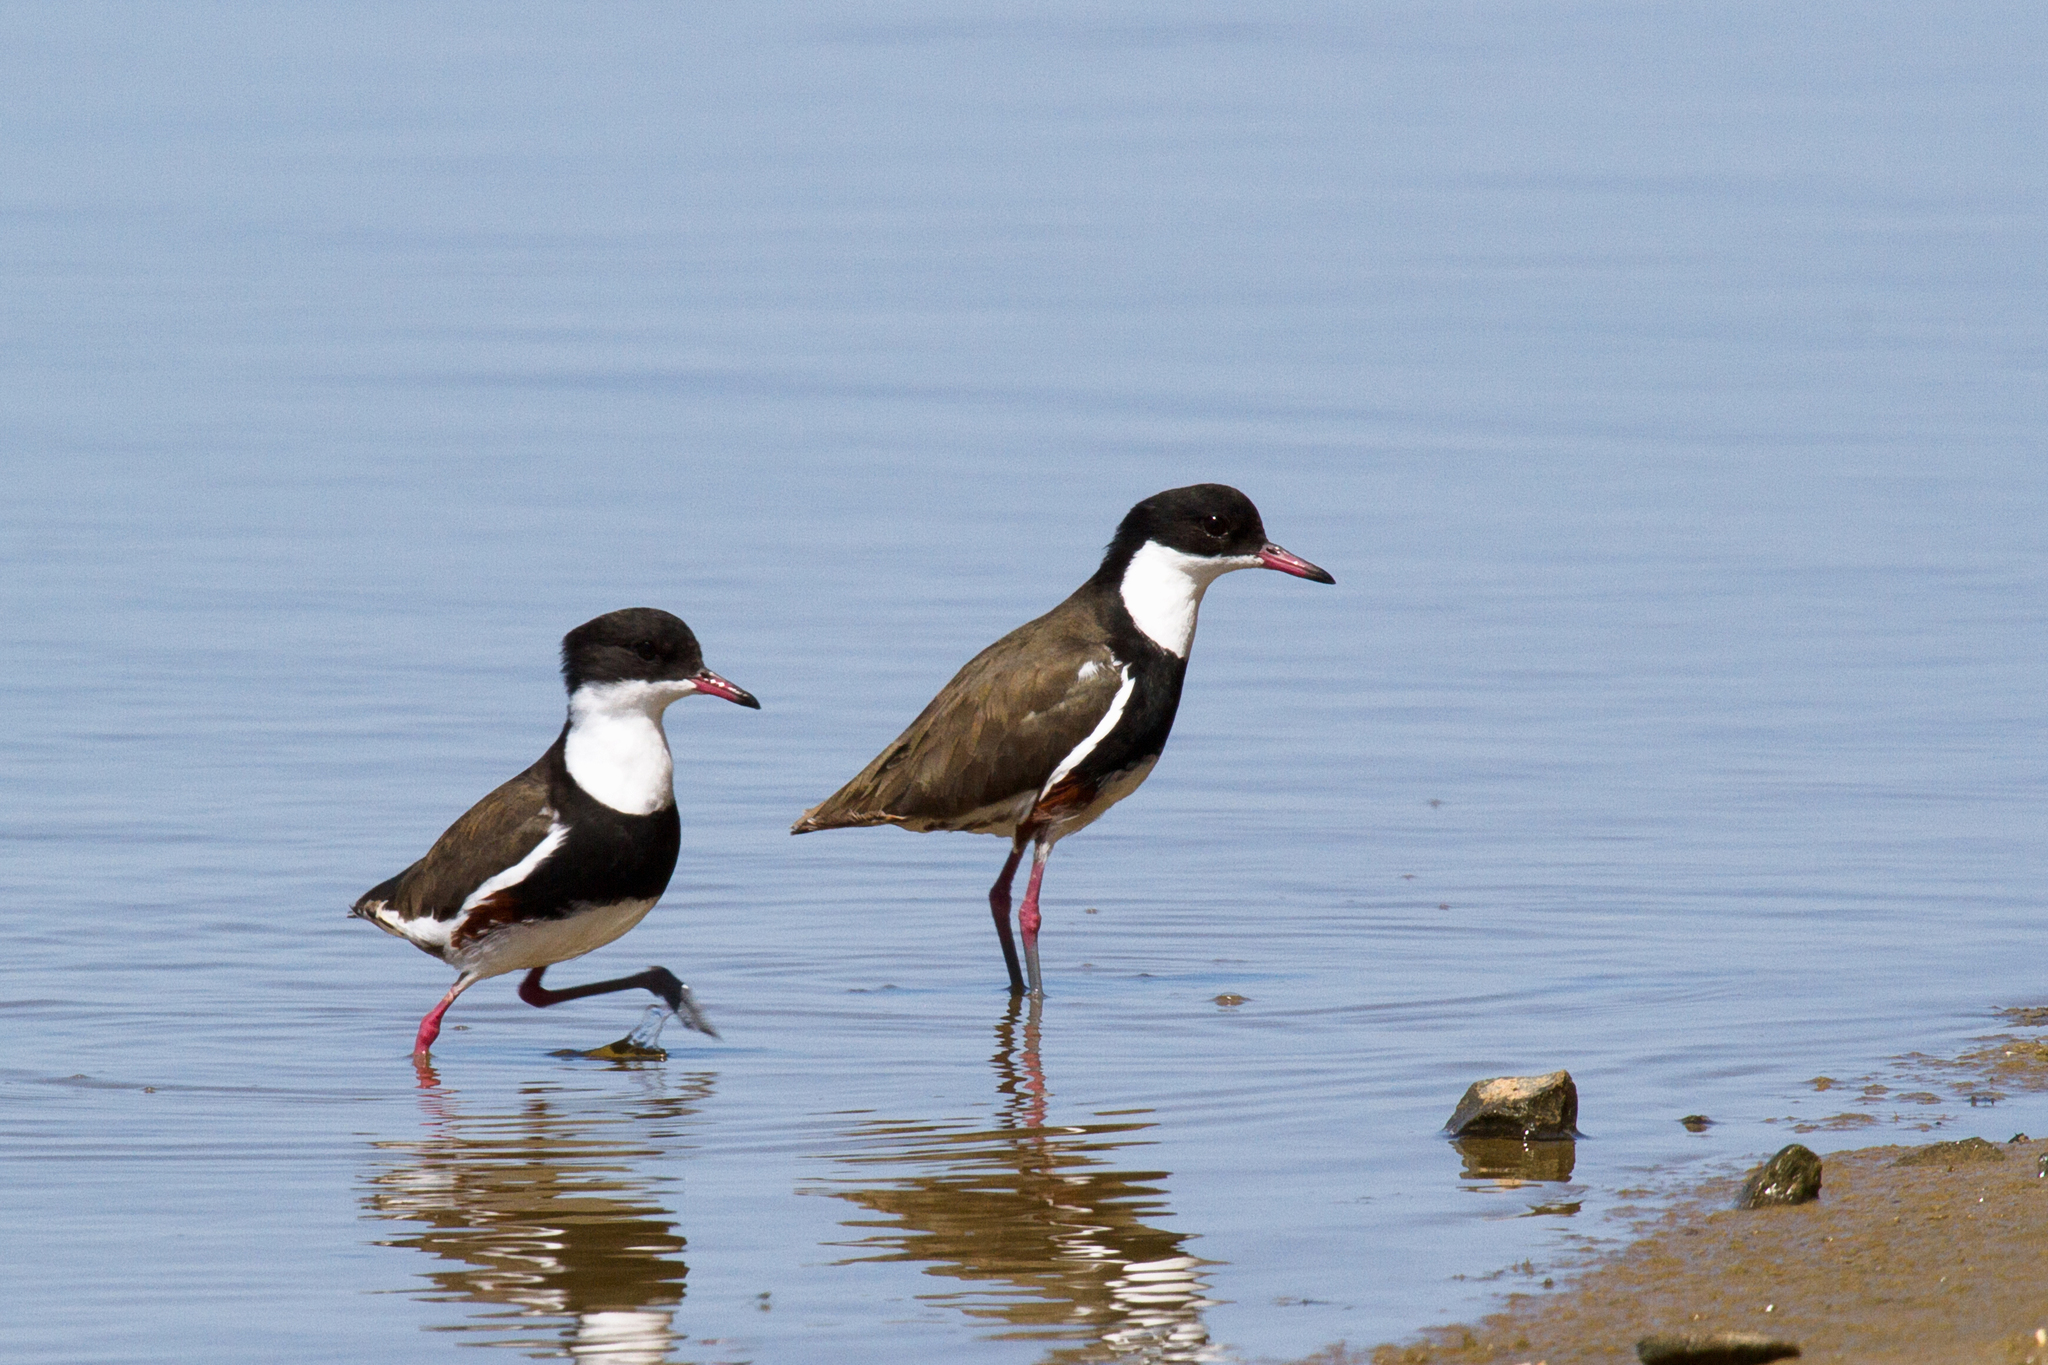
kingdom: Animalia
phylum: Chordata
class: Aves
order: Charadriiformes
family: Charadriidae
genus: Erythrogonys
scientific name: Erythrogonys cinctus
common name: Red-kneed dotterel
